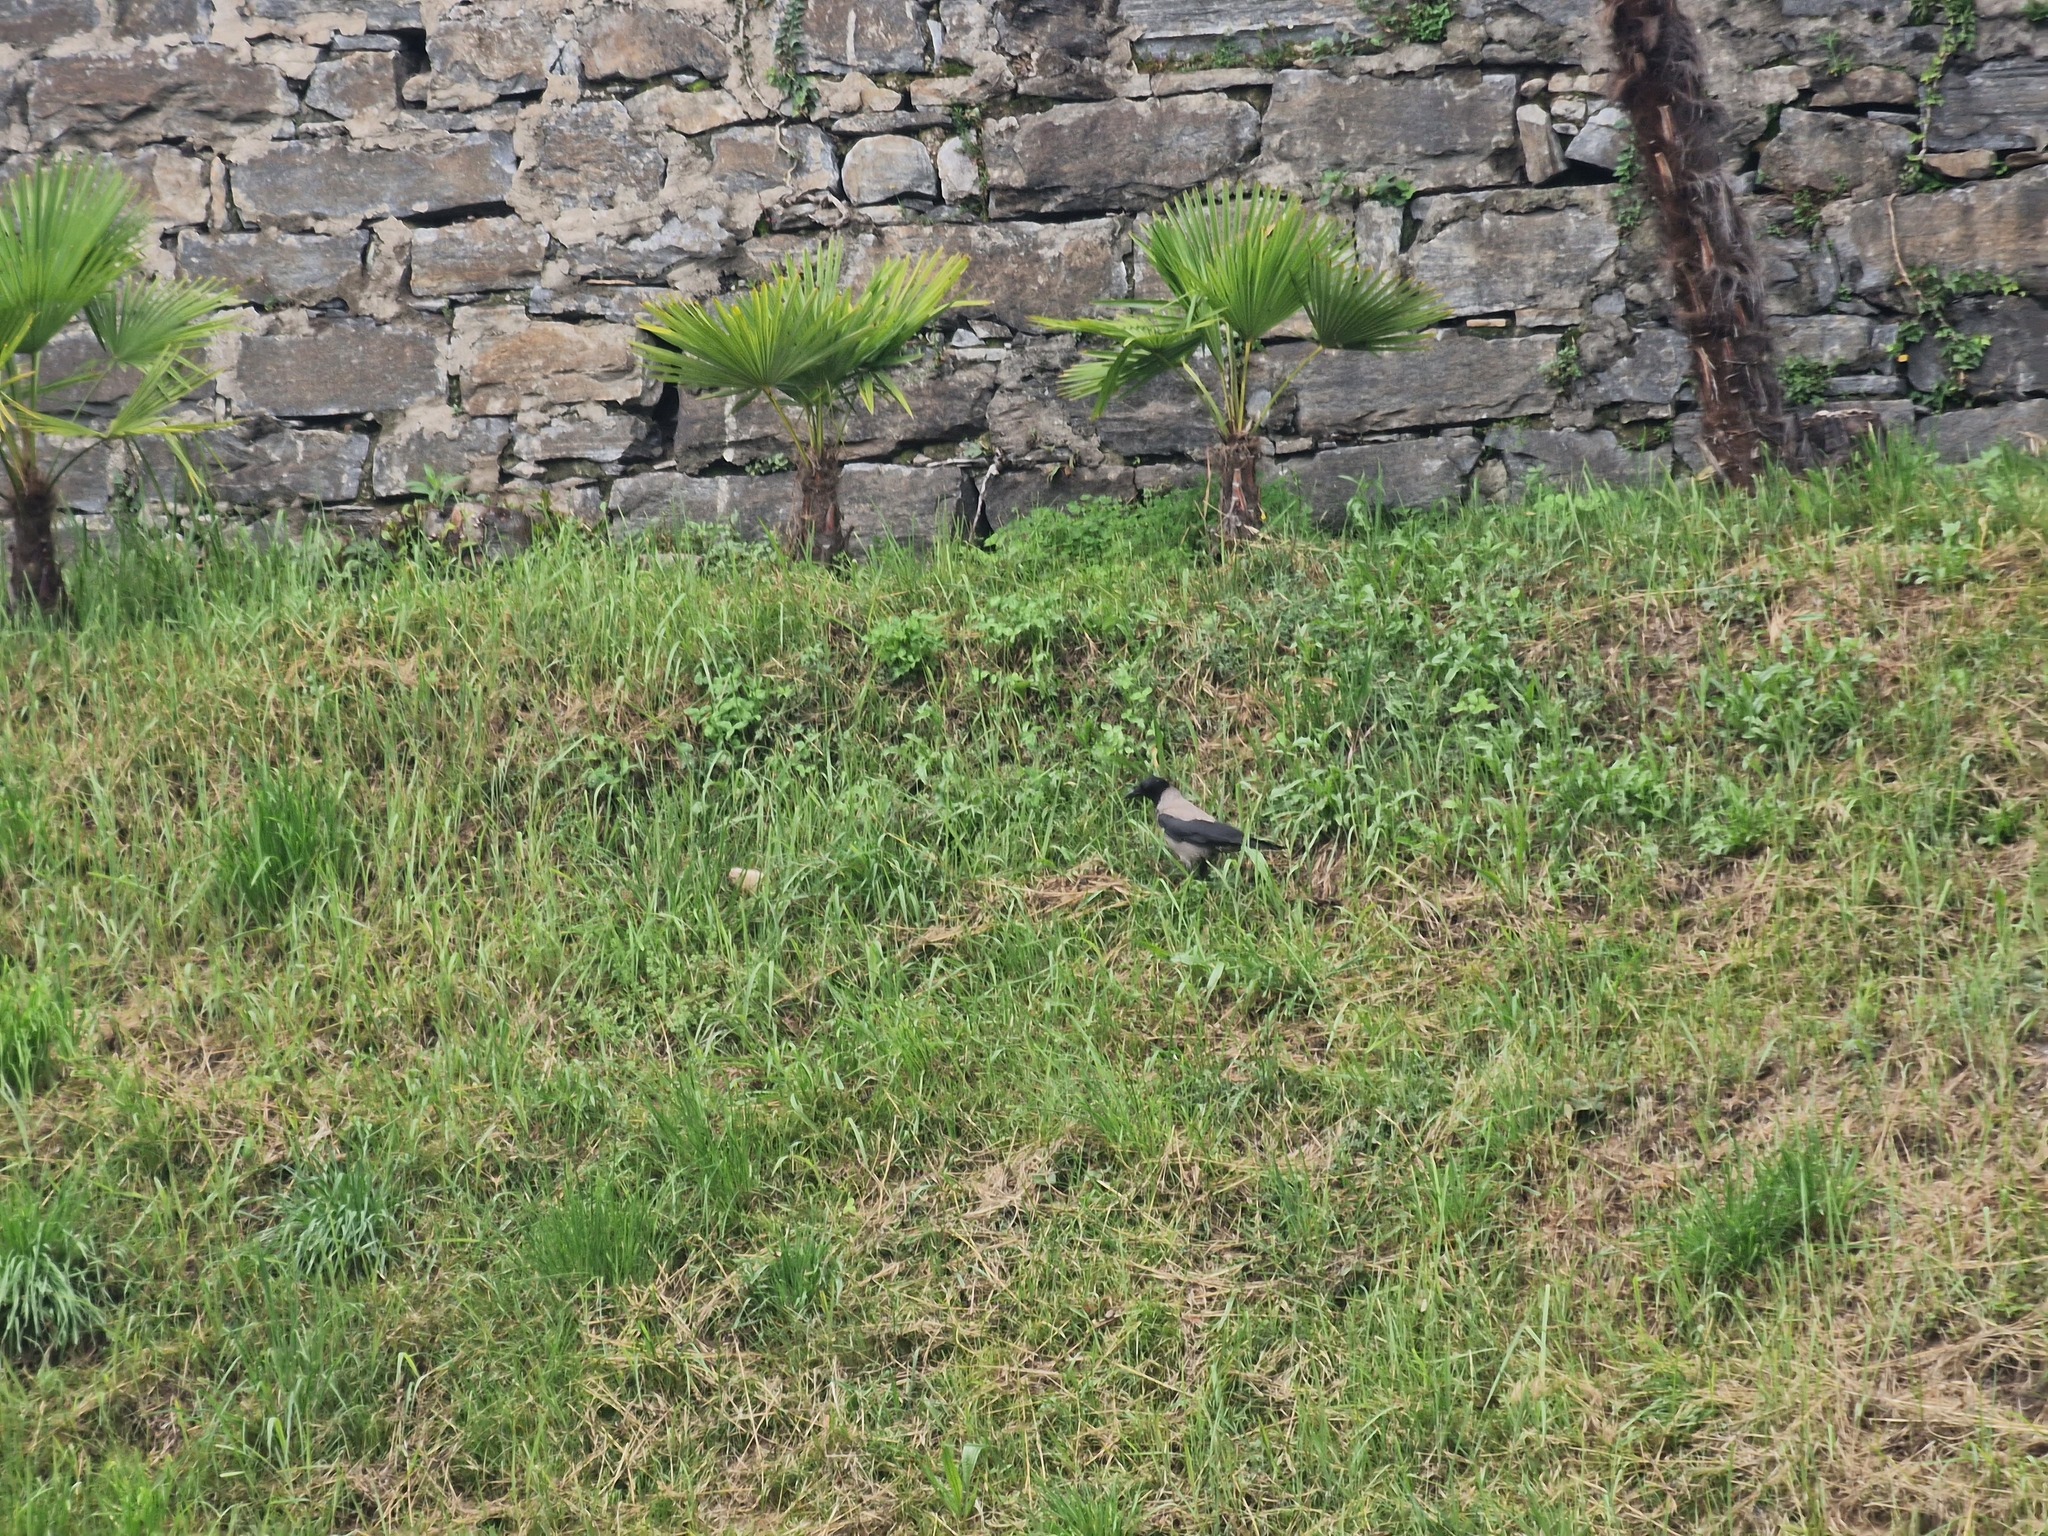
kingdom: Animalia
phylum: Chordata
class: Aves
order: Passeriformes
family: Corvidae
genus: Corvus
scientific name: Corvus cornix
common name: Hooded crow
